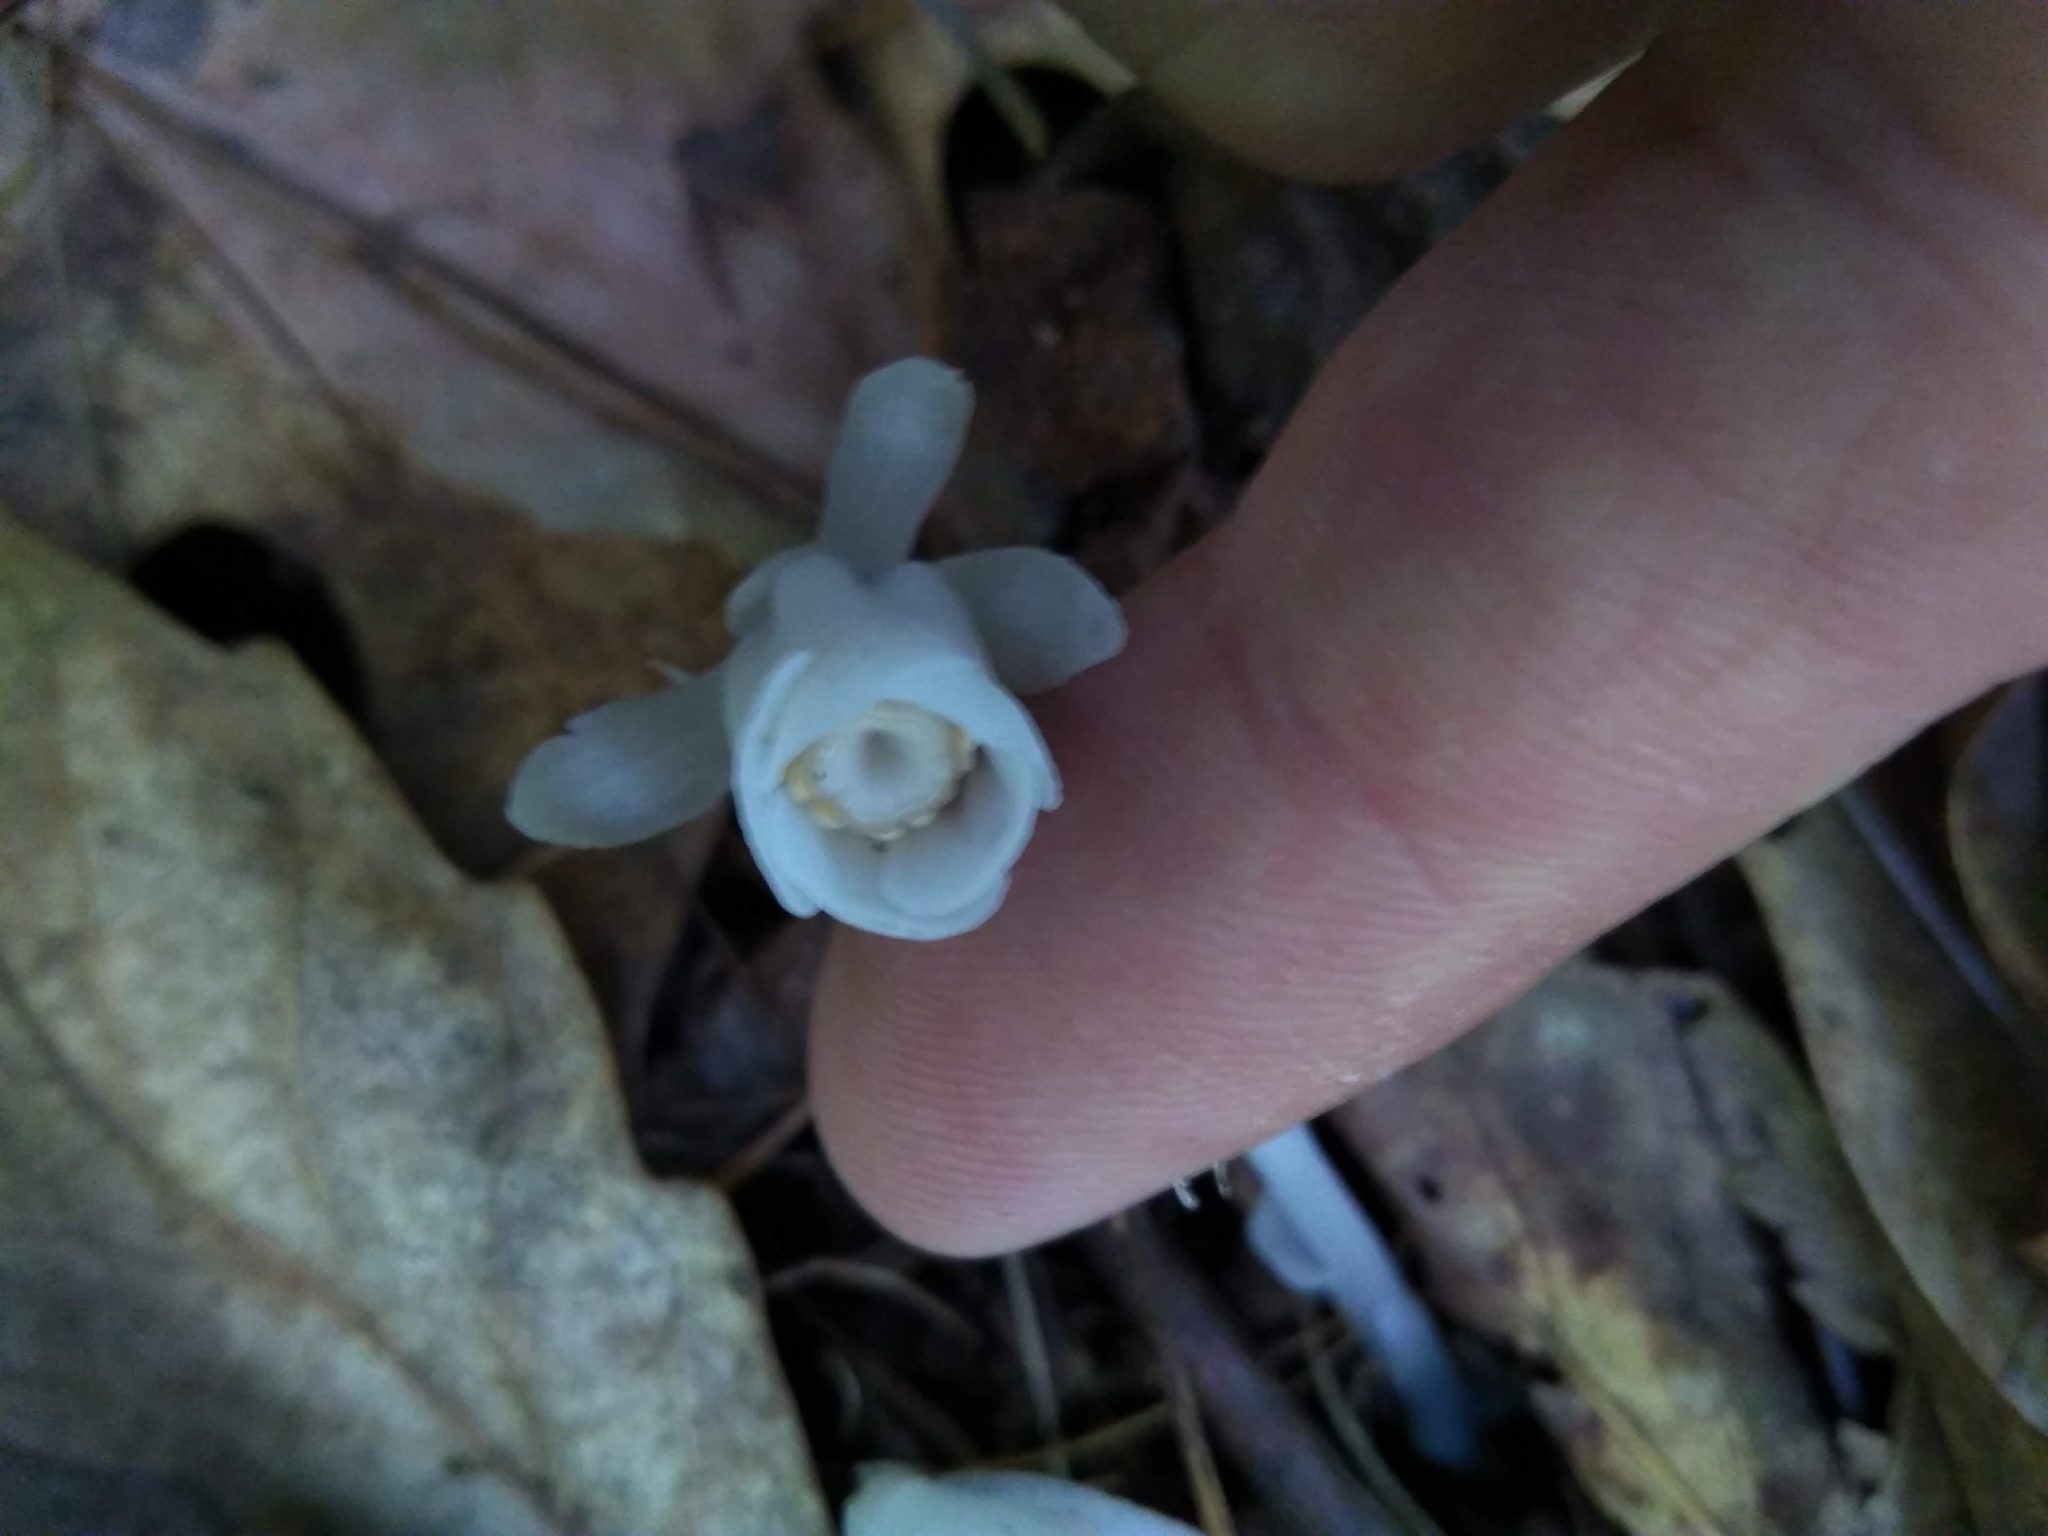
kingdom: Plantae
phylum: Tracheophyta
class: Magnoliopsida
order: Ericales
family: Ericaceae
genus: Monotropa
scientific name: Monotropa uniflora
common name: Convulsion root
